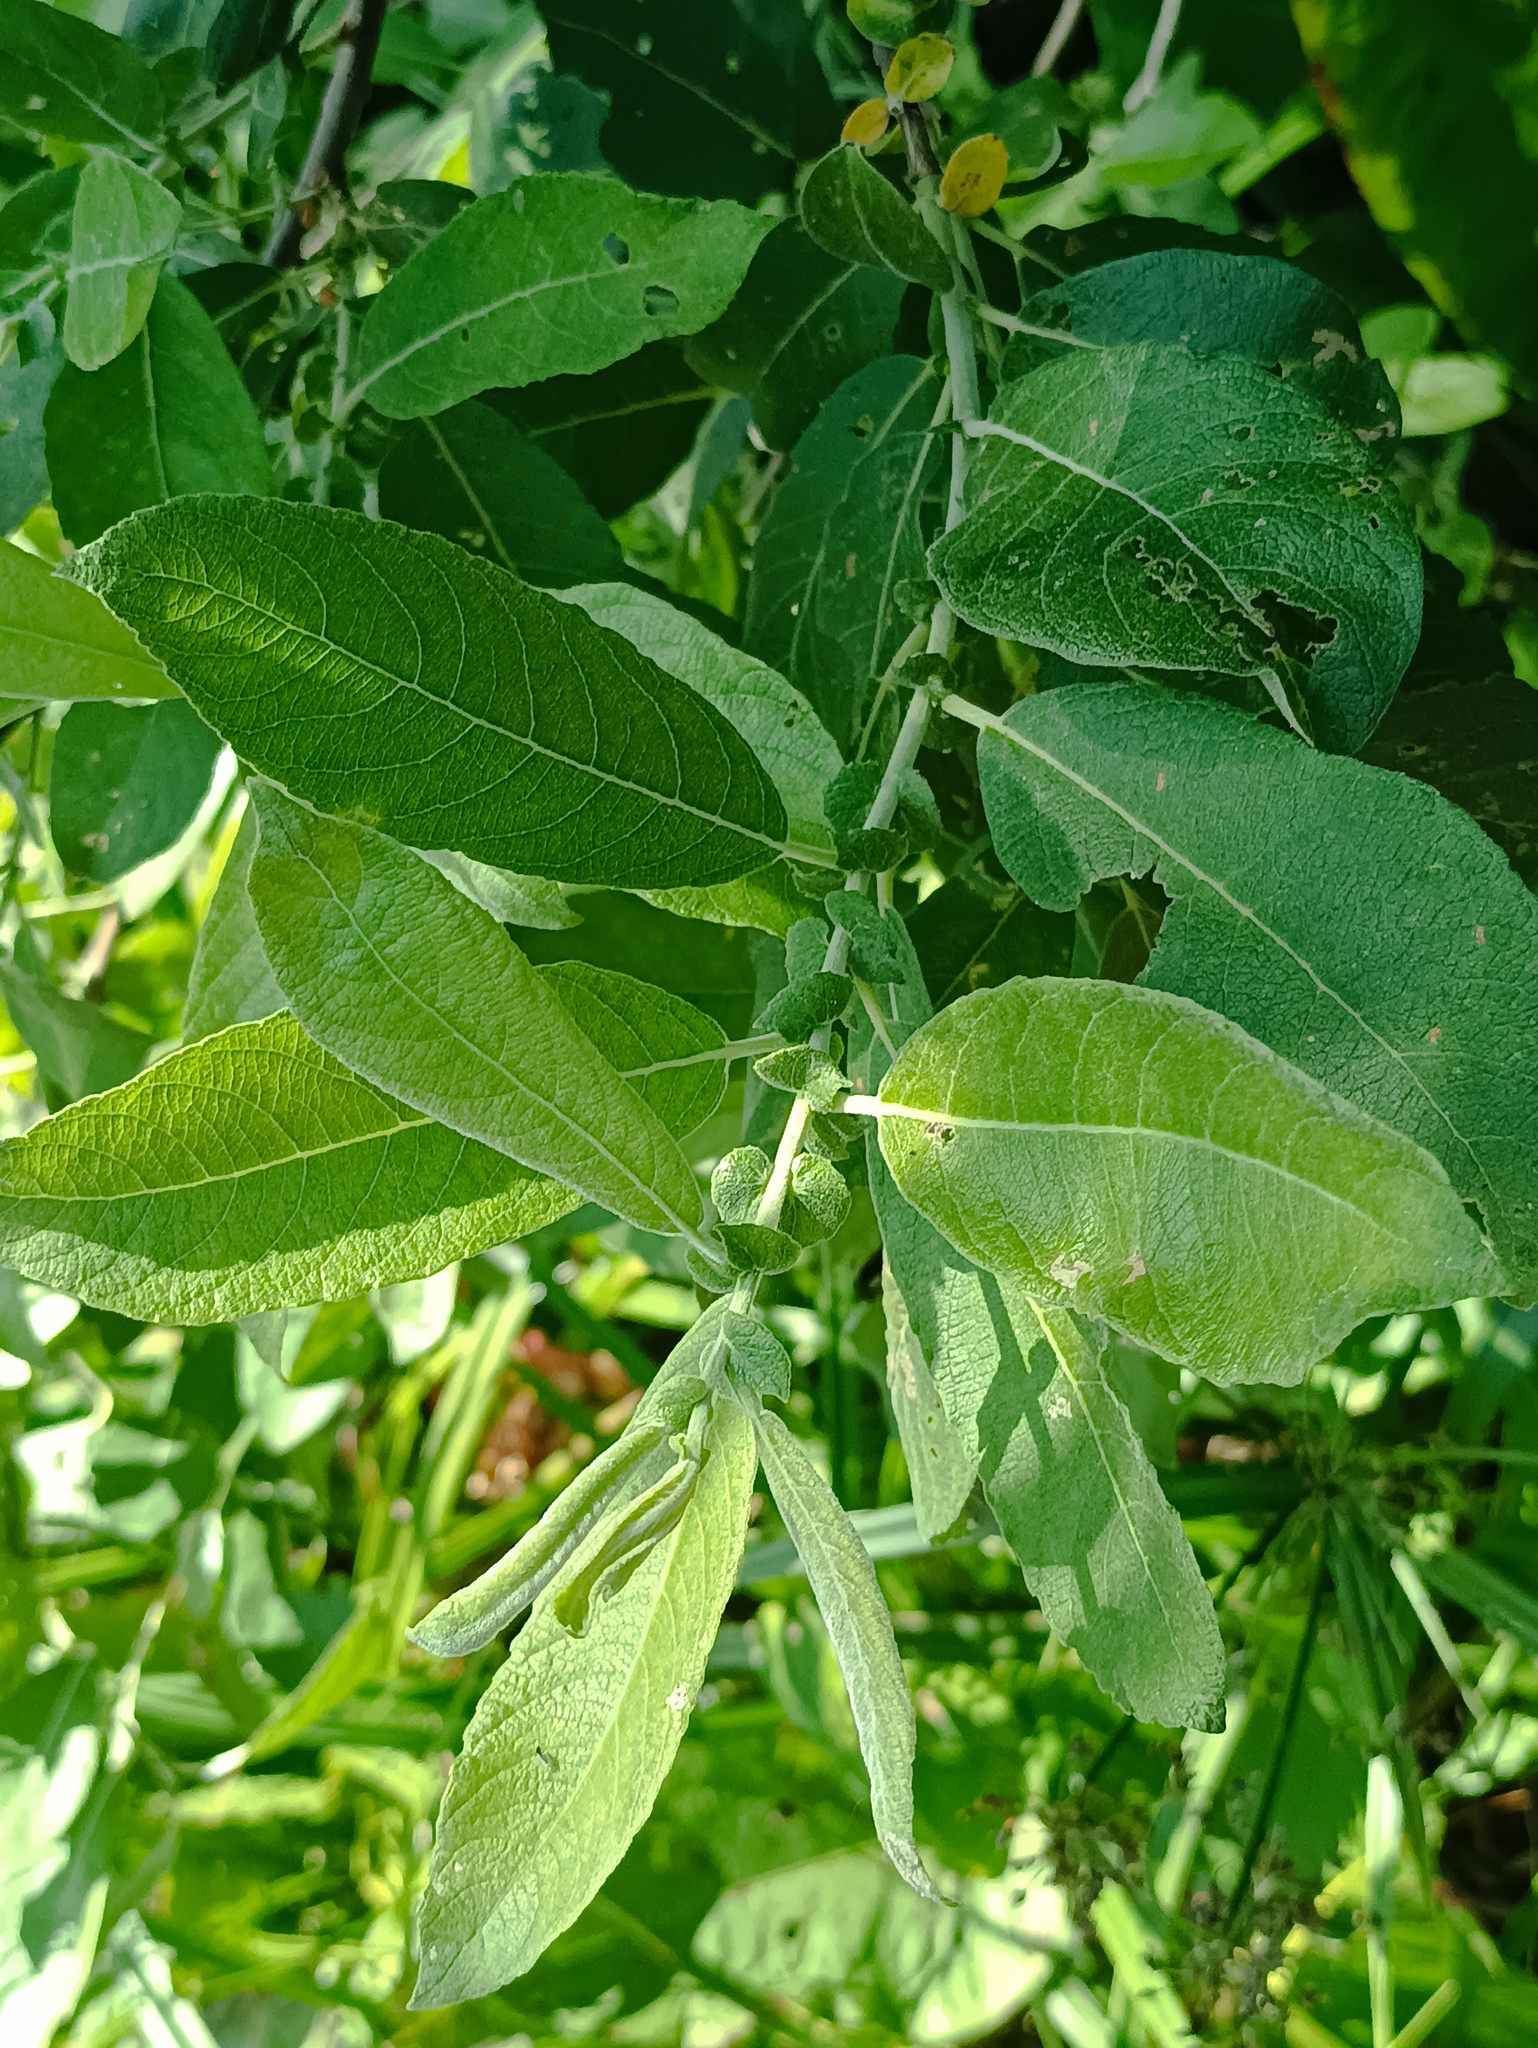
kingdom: Plantae
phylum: Tracheophyta
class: Magnoliopsida
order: Malpighiales
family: Salicaceae
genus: Salix
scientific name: Salix cinerea
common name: Common sallow
